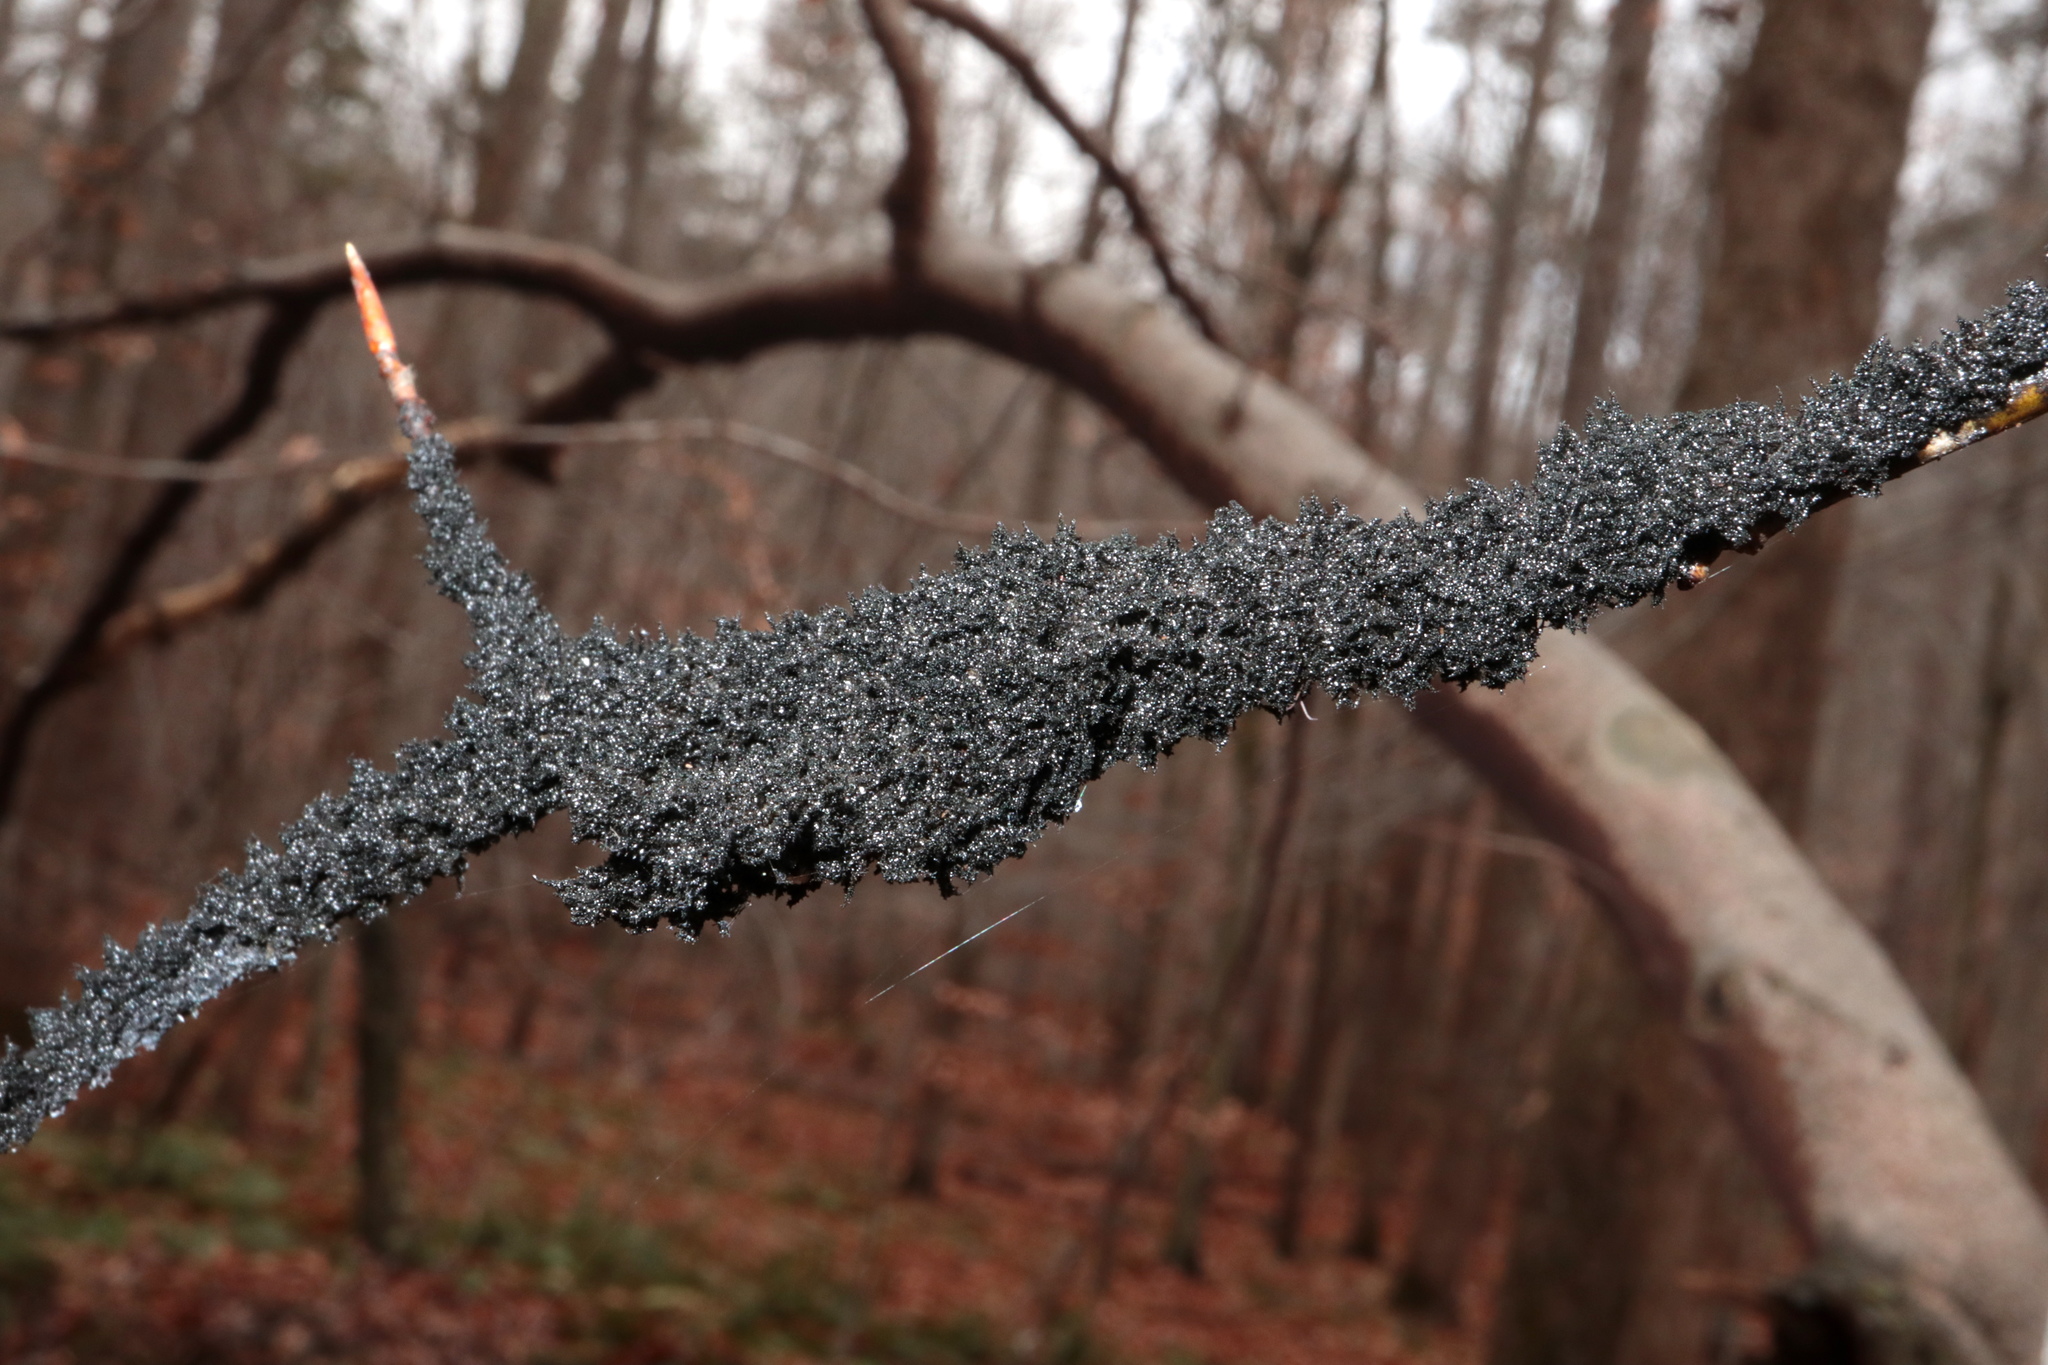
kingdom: Fungi
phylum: Ascomycota
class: Dothideomycetes
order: Capnodiales
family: Capnodiaceae
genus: Scorias
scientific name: Scorias spongiosa
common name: Black sooty mold
